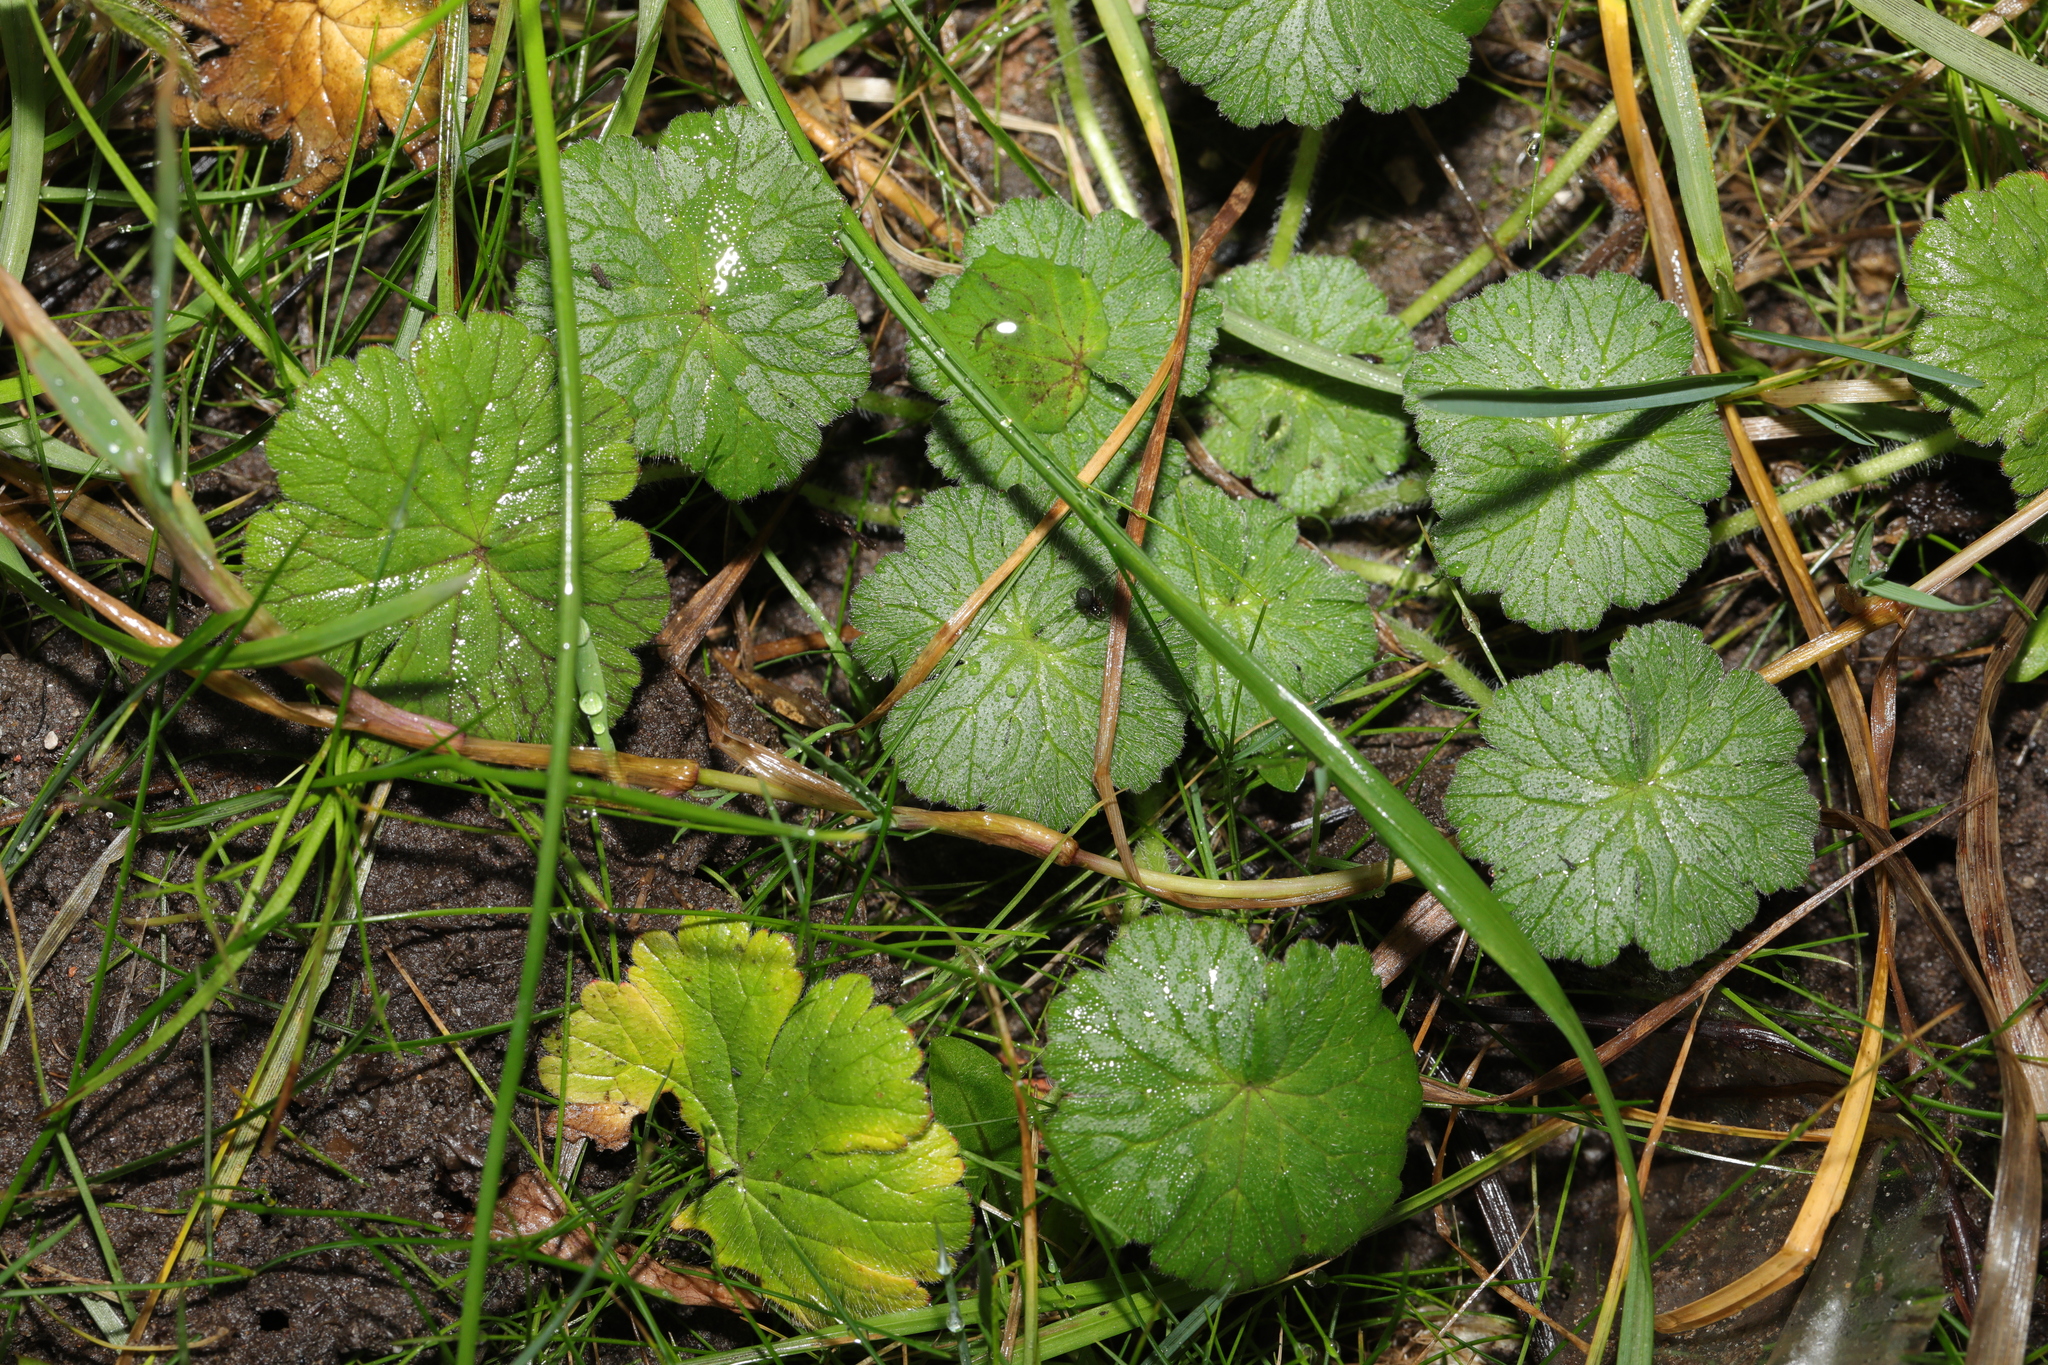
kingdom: Plantae
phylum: Tracheophyta
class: Magnoliopsida
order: Geraniales
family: Geraniaceae
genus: Geranium
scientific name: Geranium pyrenaicum
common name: Hedgerow crane's-bill
